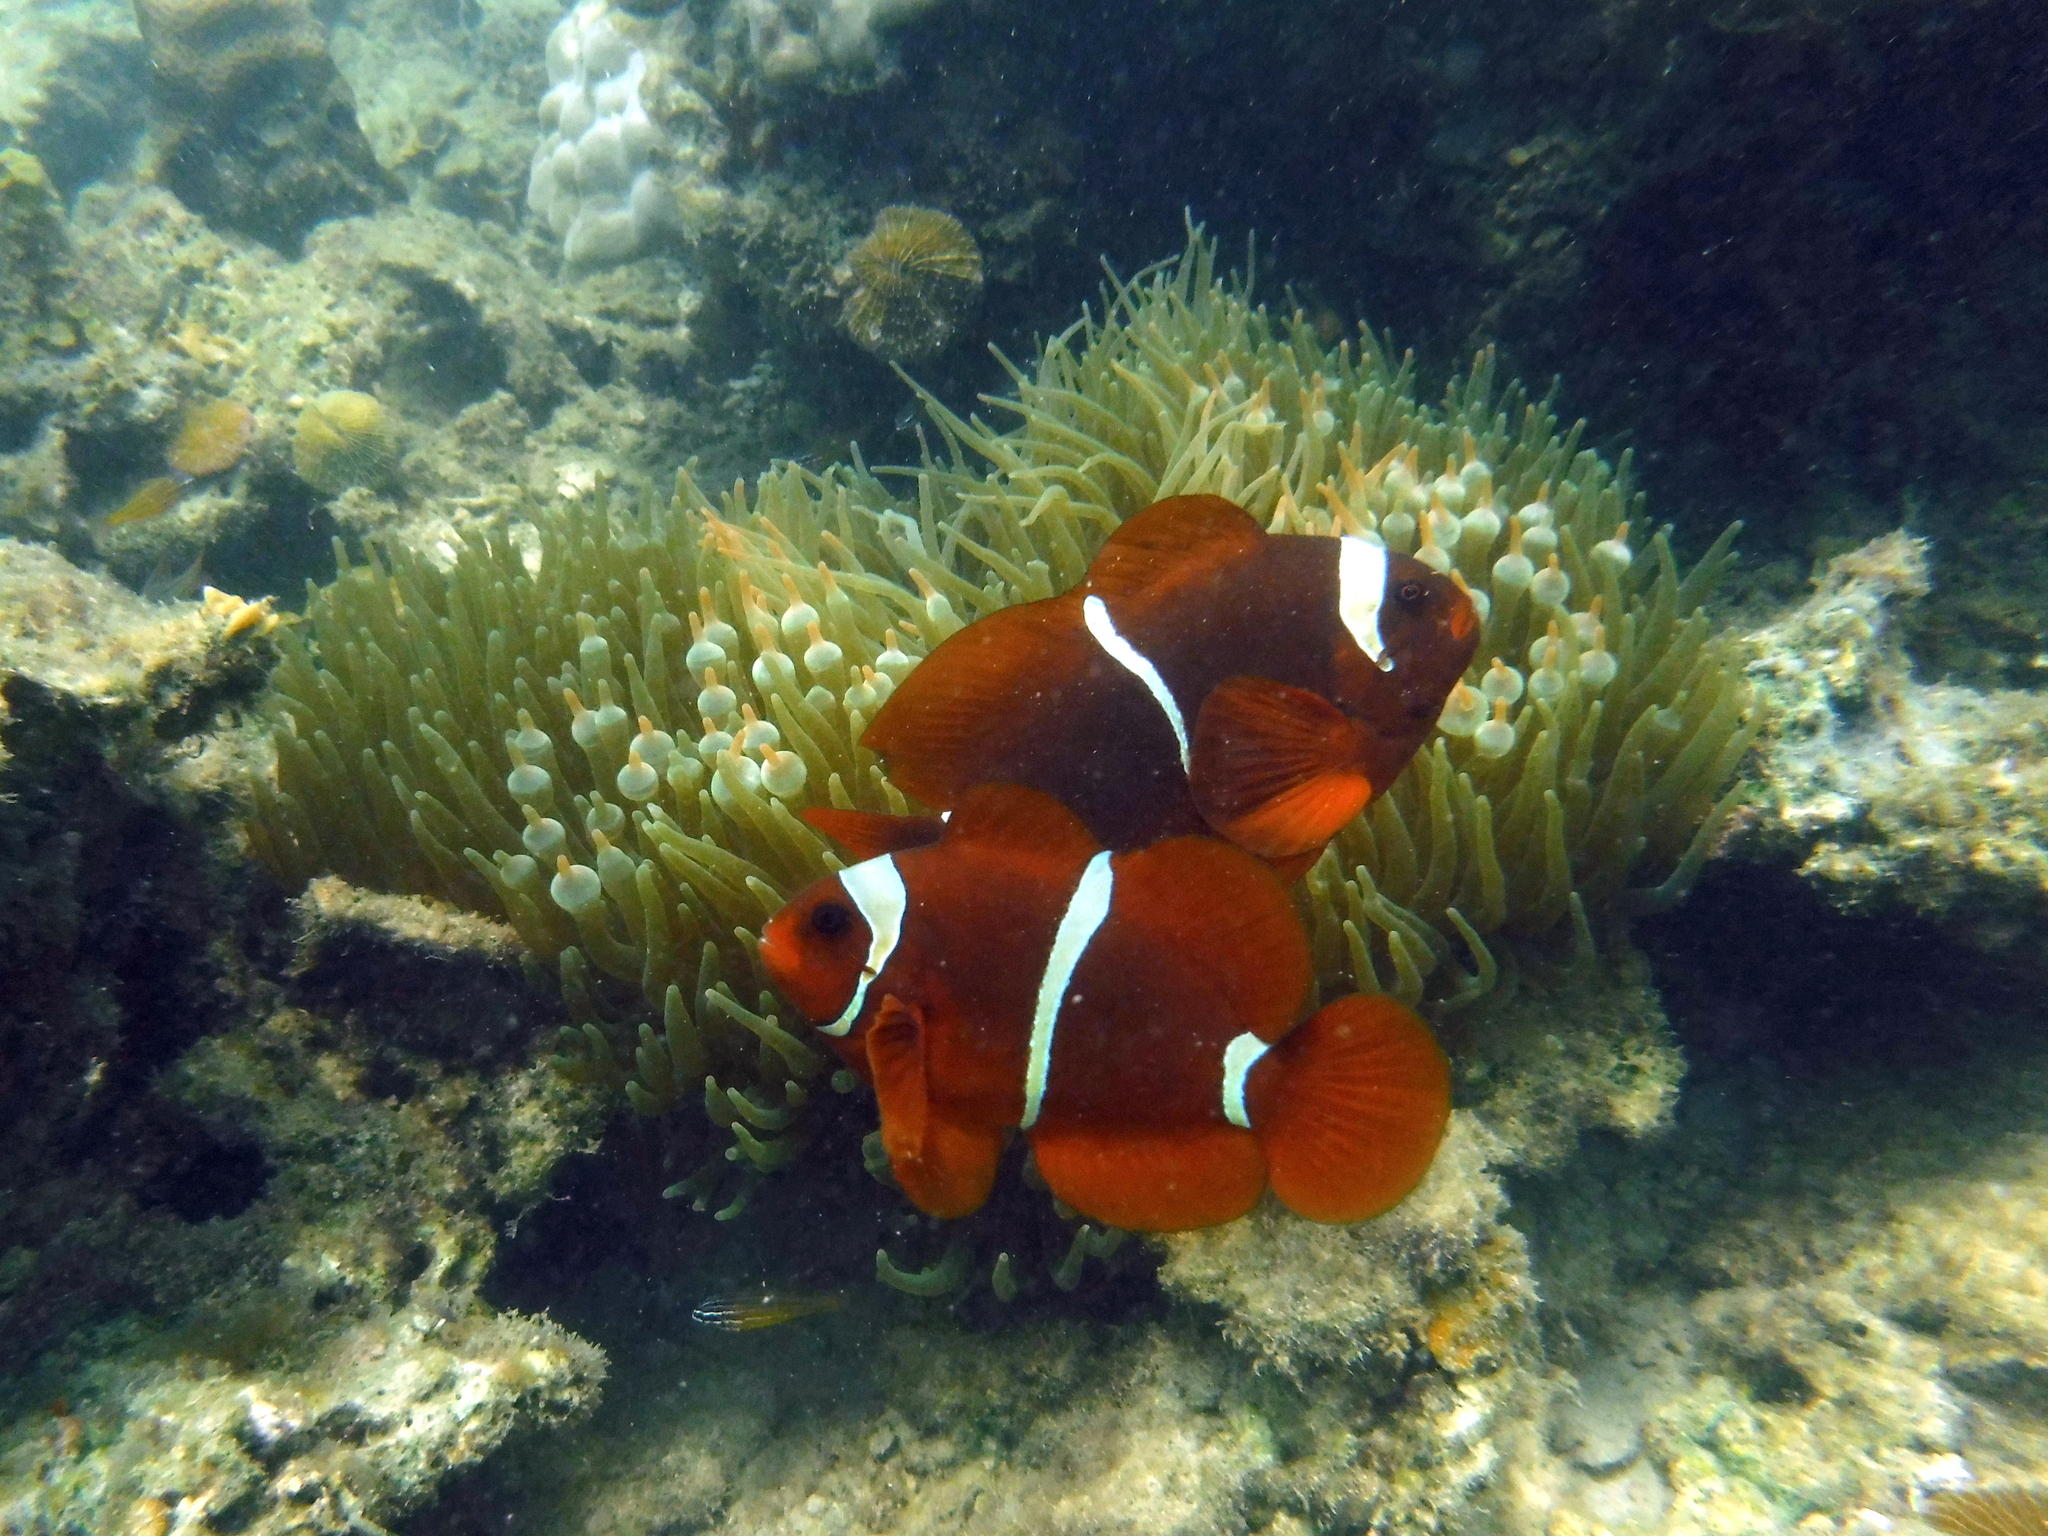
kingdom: Animalia
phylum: Chordata
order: Perciformes
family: Pomacentridae
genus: Premnas
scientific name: Premnas biaculeatus
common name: Spinecheek anemonefish
